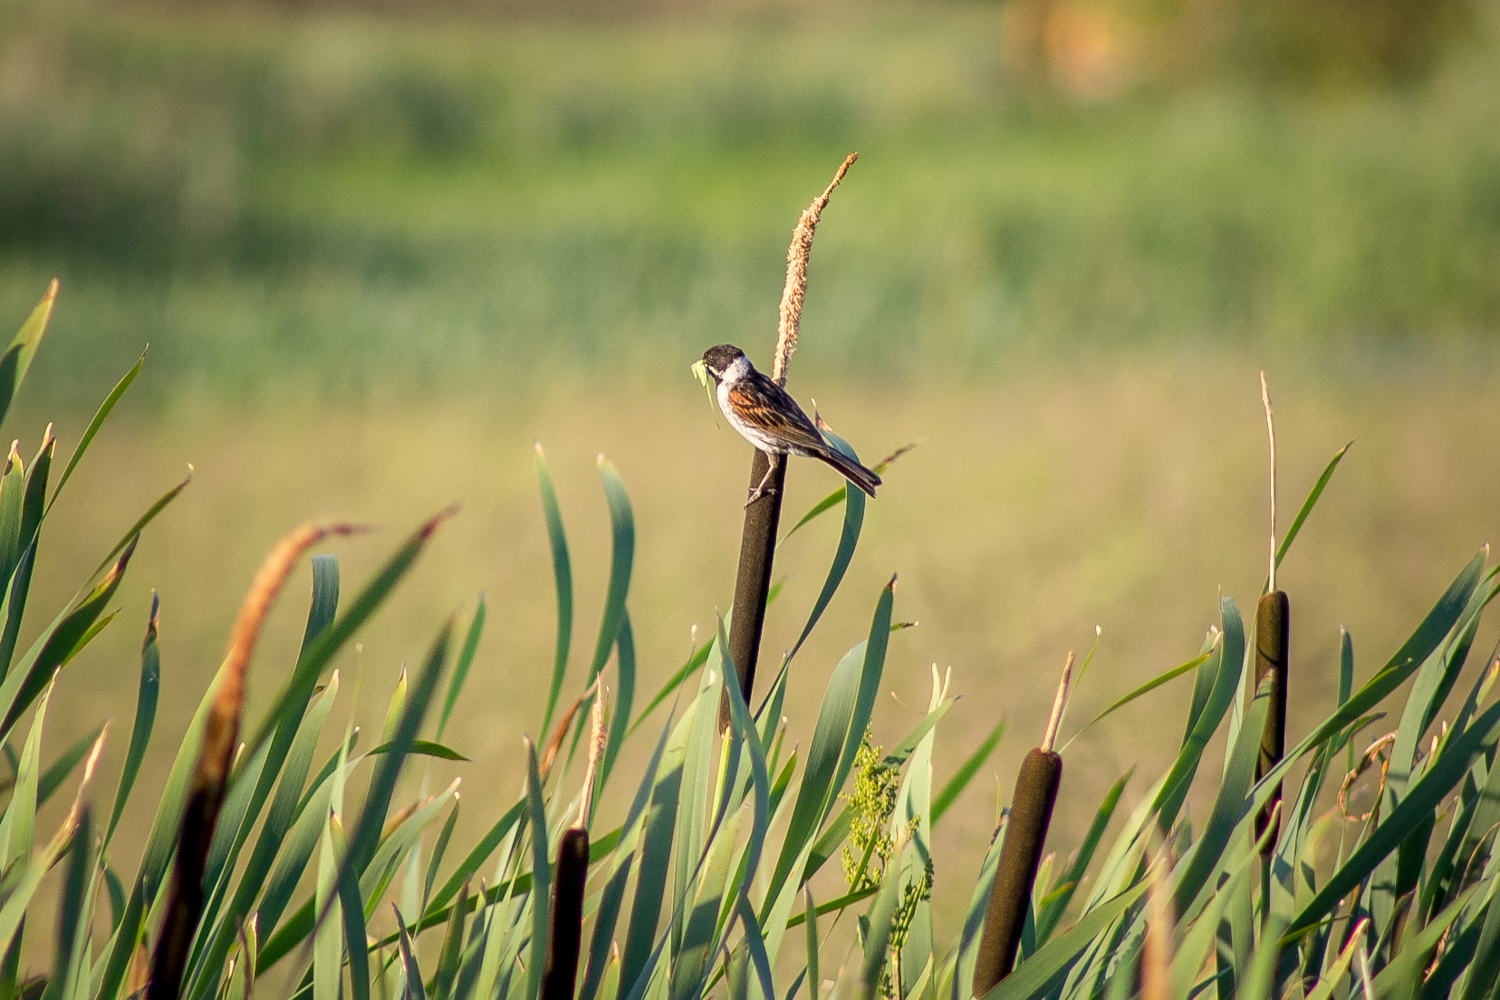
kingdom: Animalia
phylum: Chordata
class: Aves
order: Passeriformes
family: Emberizidae
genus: Emberiza
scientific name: Emberiza schoeniclus
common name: Reed bunting
